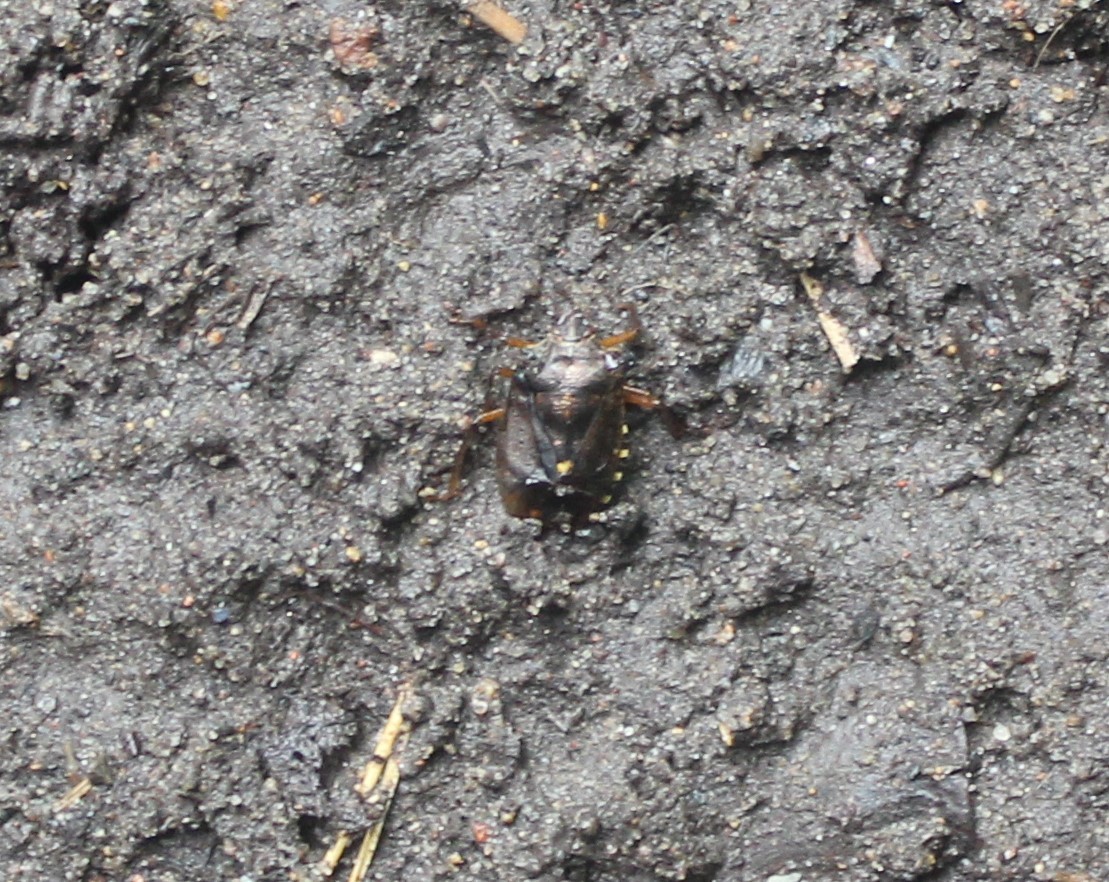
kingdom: Animalia
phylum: Arthropoda
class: Insecta
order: Hemiptera
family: Pentatomidae
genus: Pentatoma
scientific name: Pentatoma rufipes
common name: Forest bug
